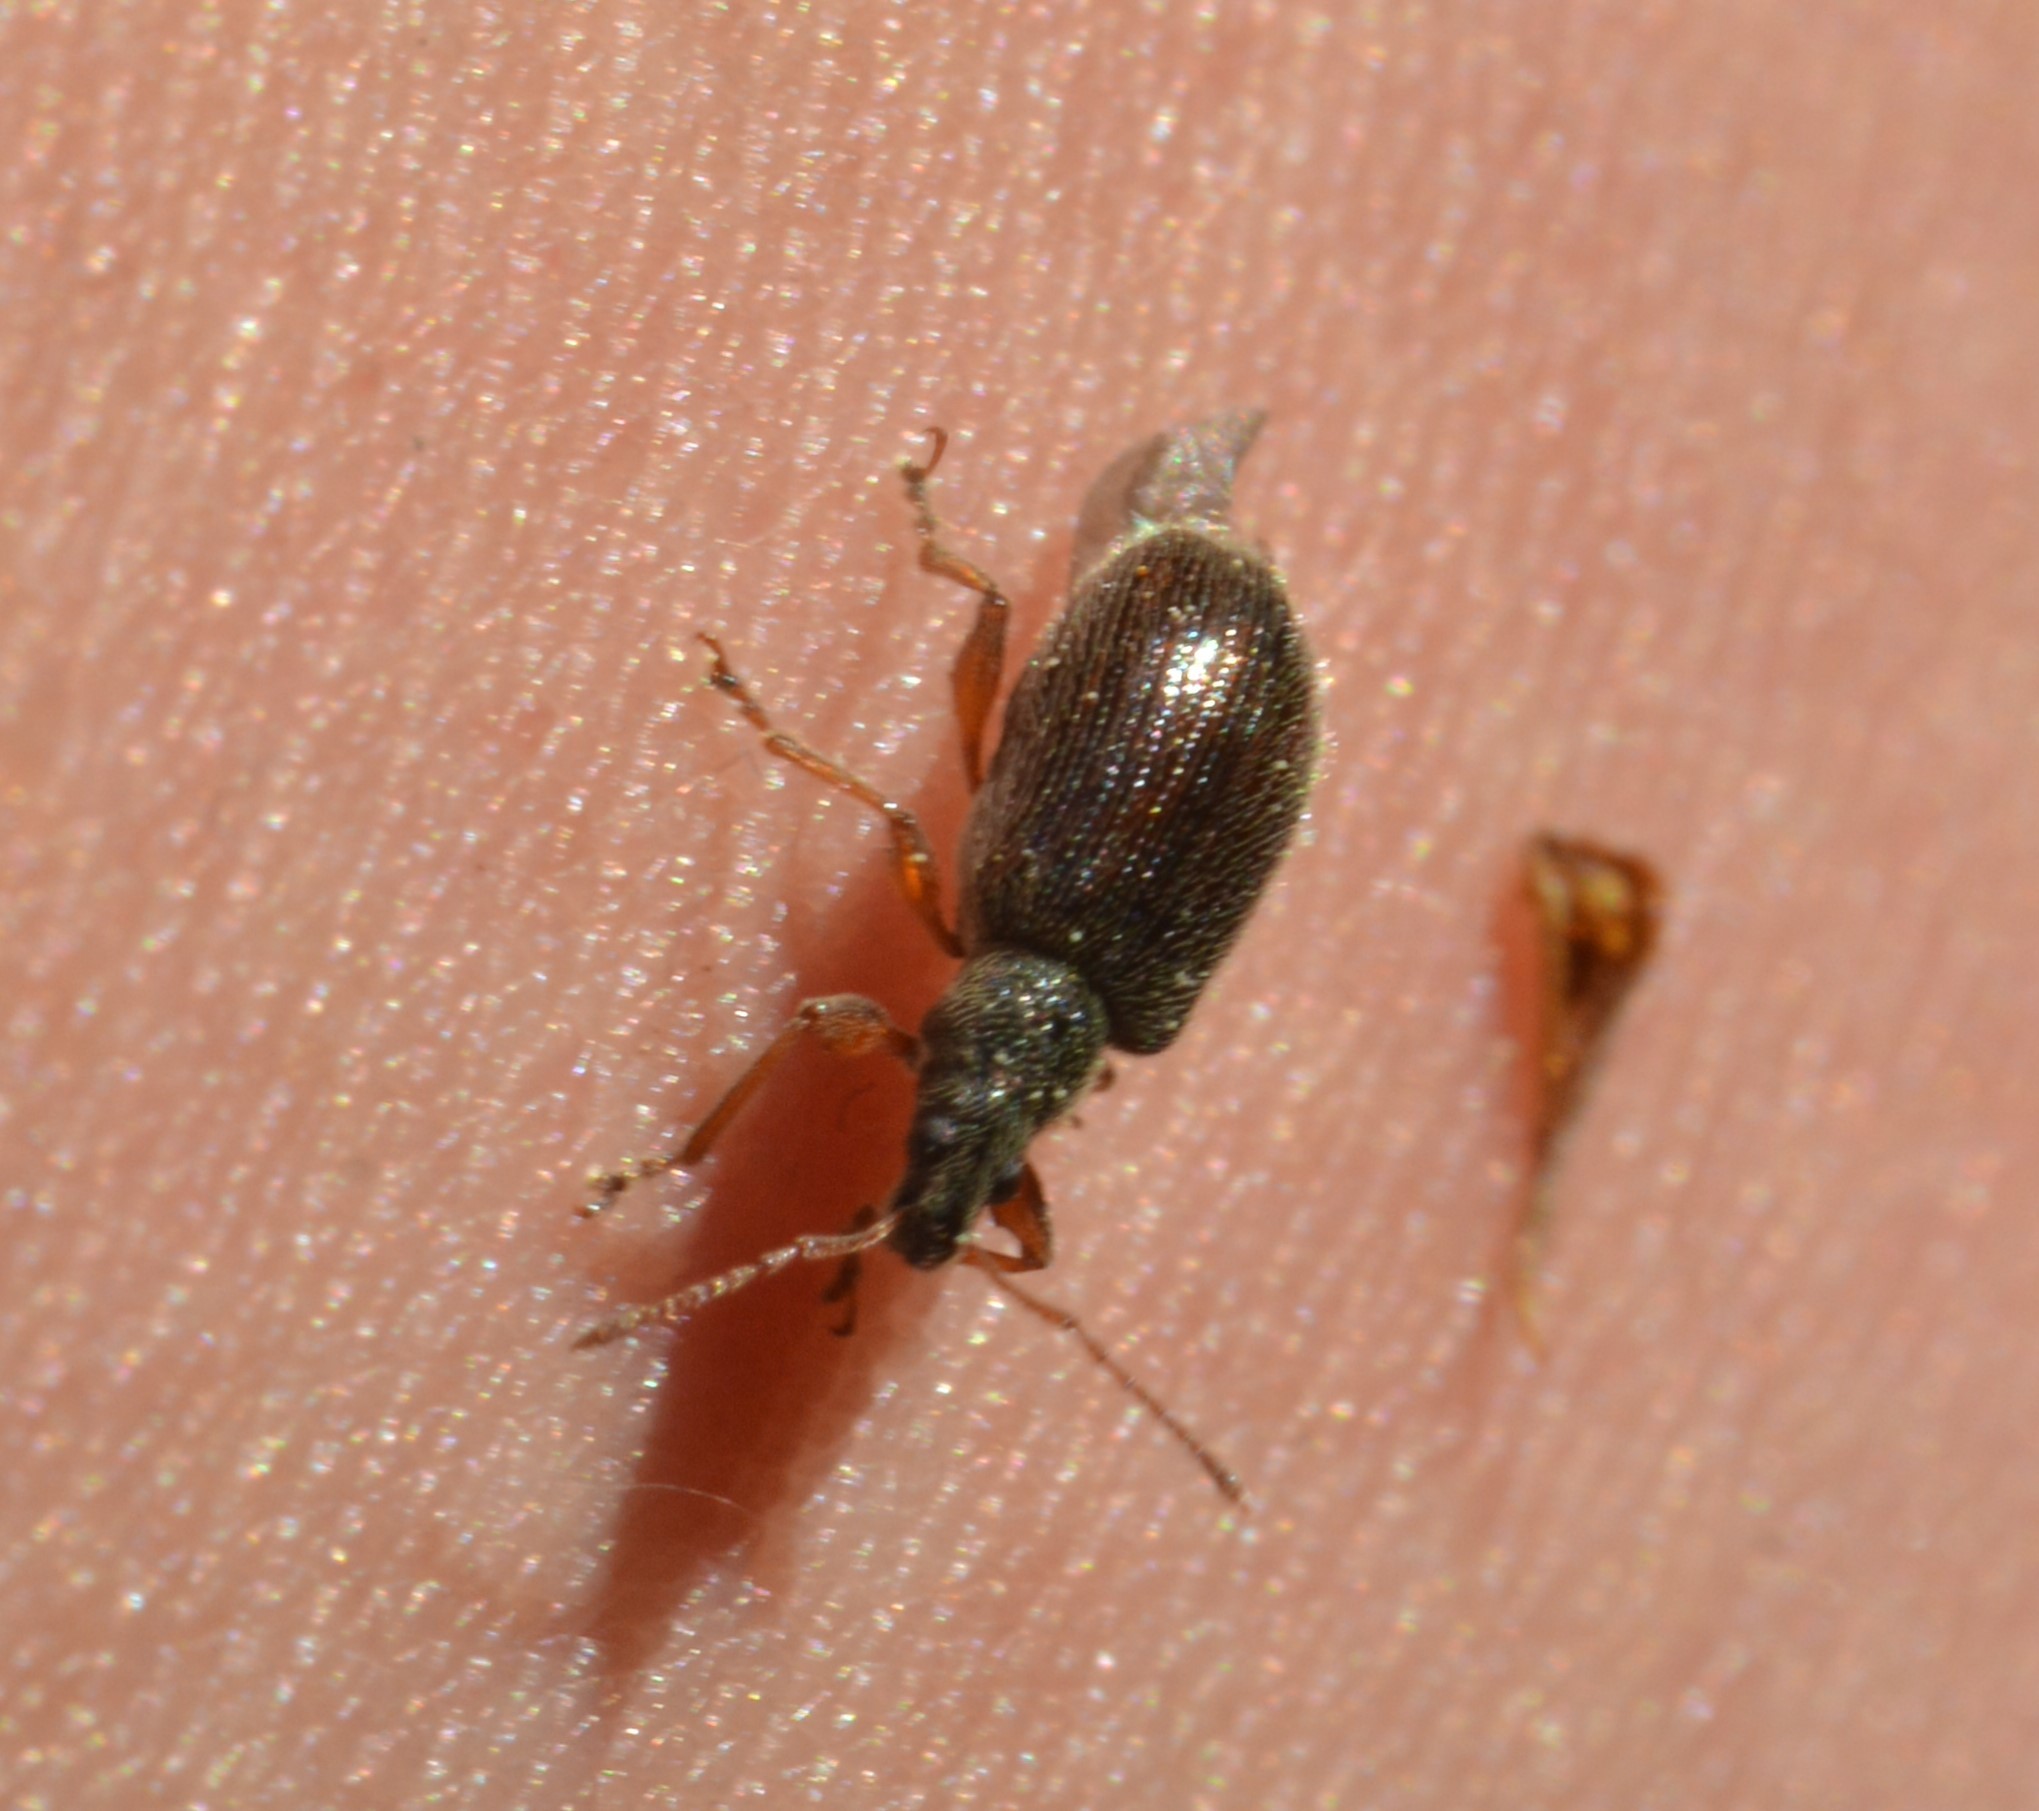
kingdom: Animalia
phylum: Arthropoda
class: Insecta
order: Coleoptera
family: Curculionidae
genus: Phyllobius
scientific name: Phyllobius oblongus
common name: Brown leaf weevil
